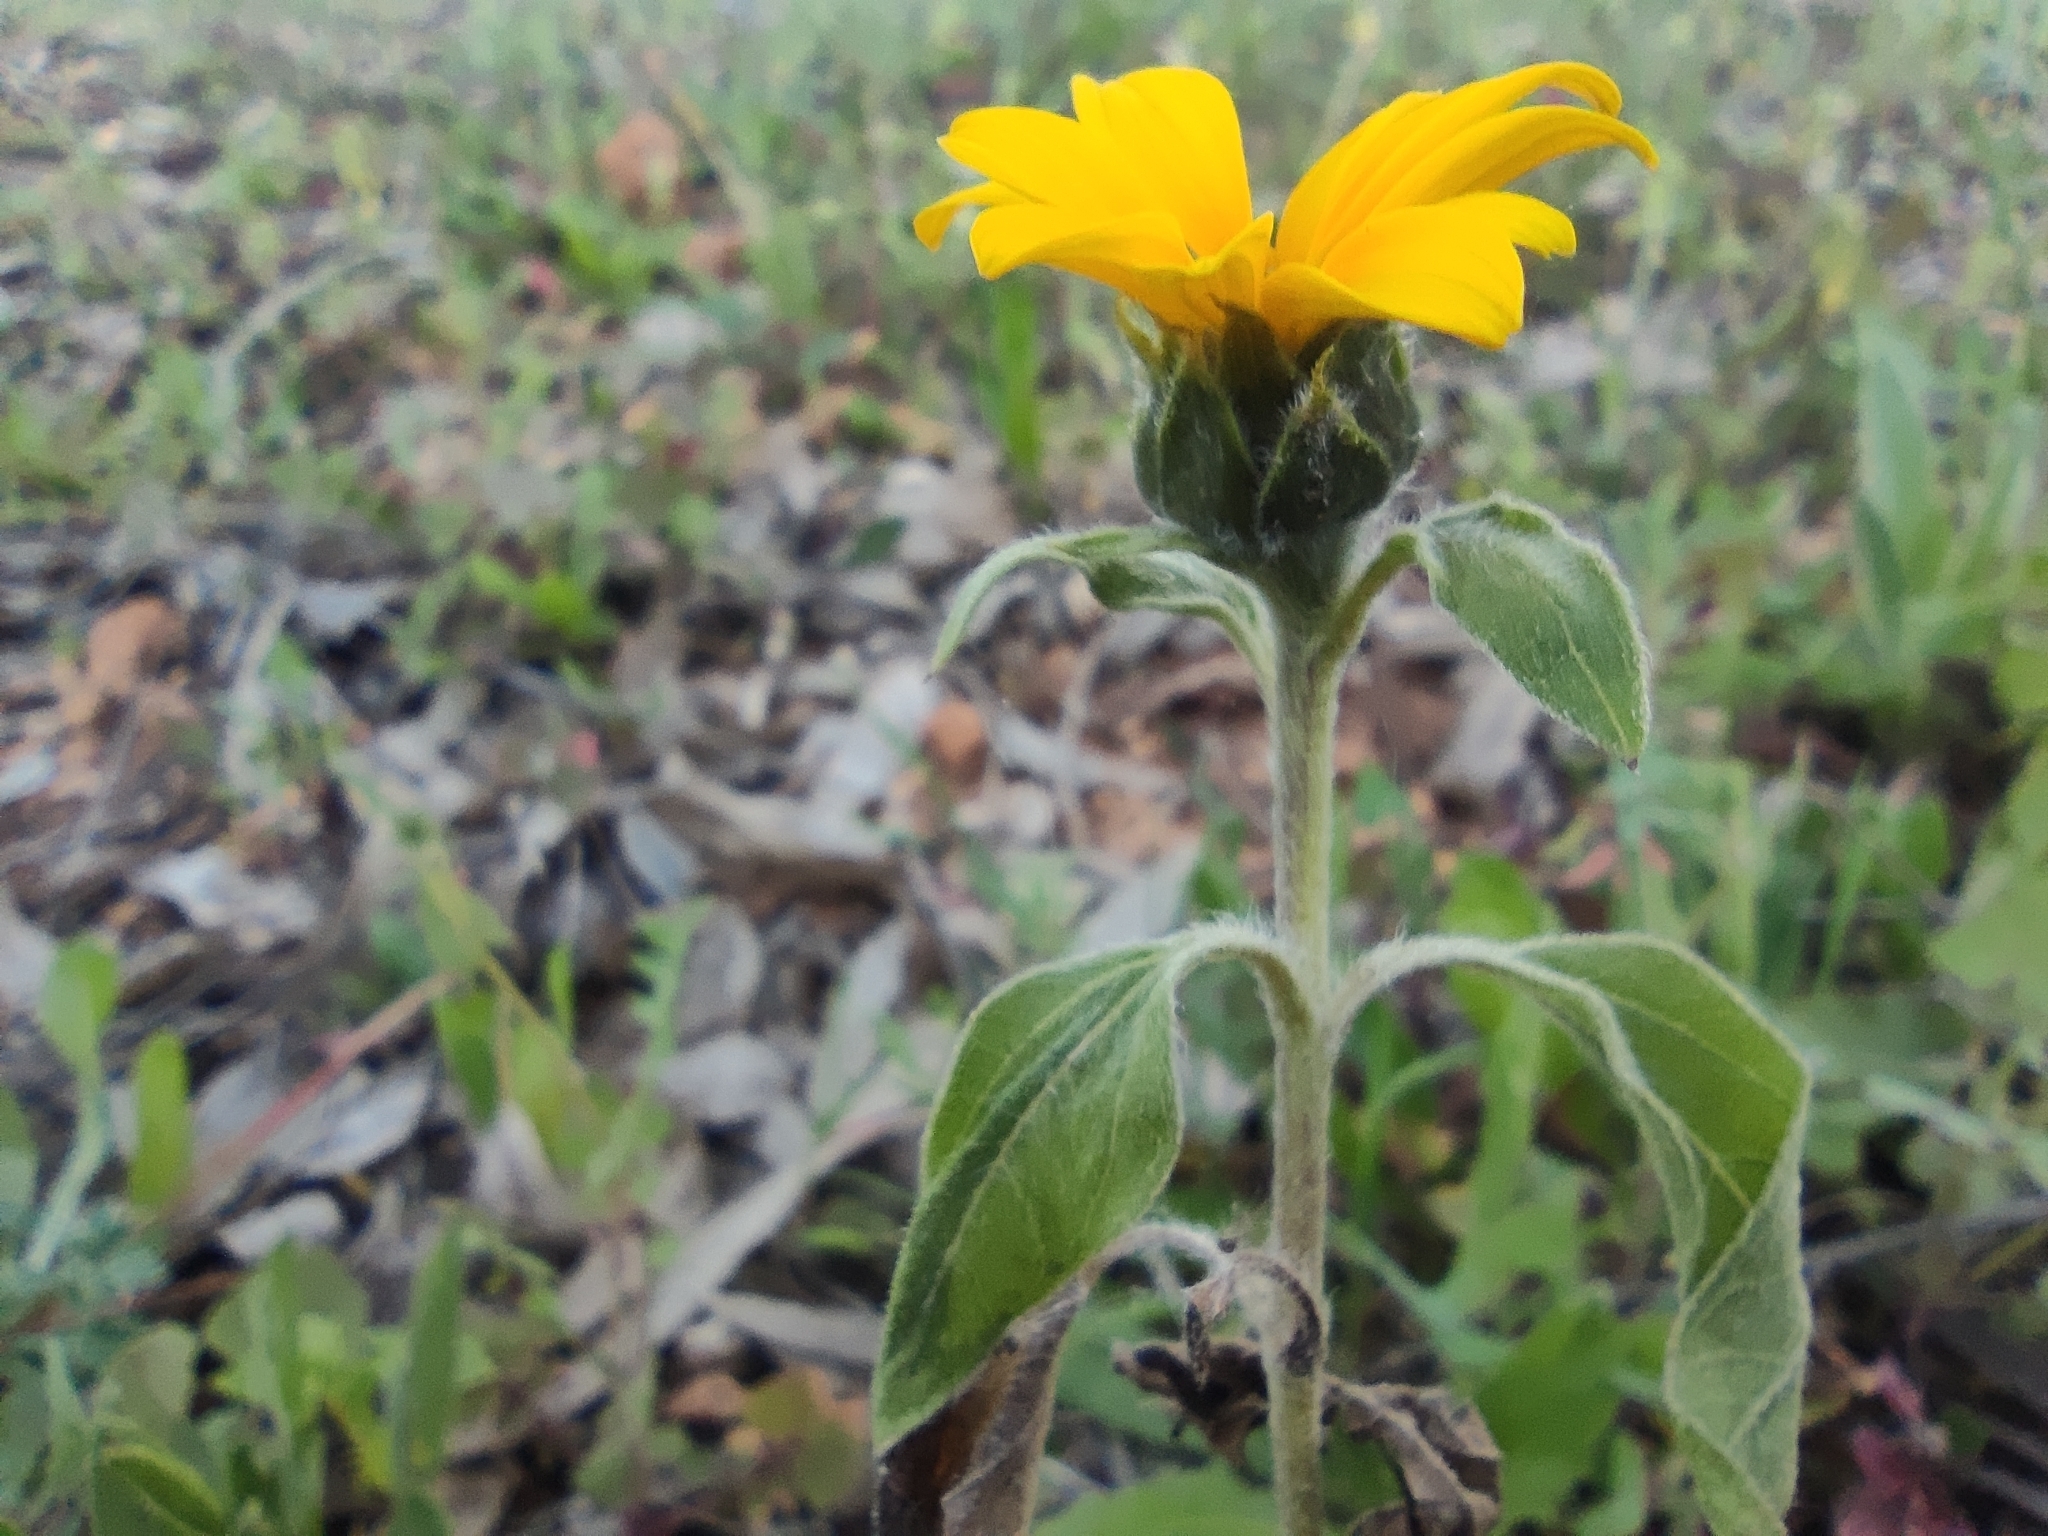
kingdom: Plantae
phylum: Tracheophyta
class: Magnoliopsida
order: Asterales
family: Asteraceae
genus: Helianthus
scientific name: Helianthus annuus
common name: Sunflower
